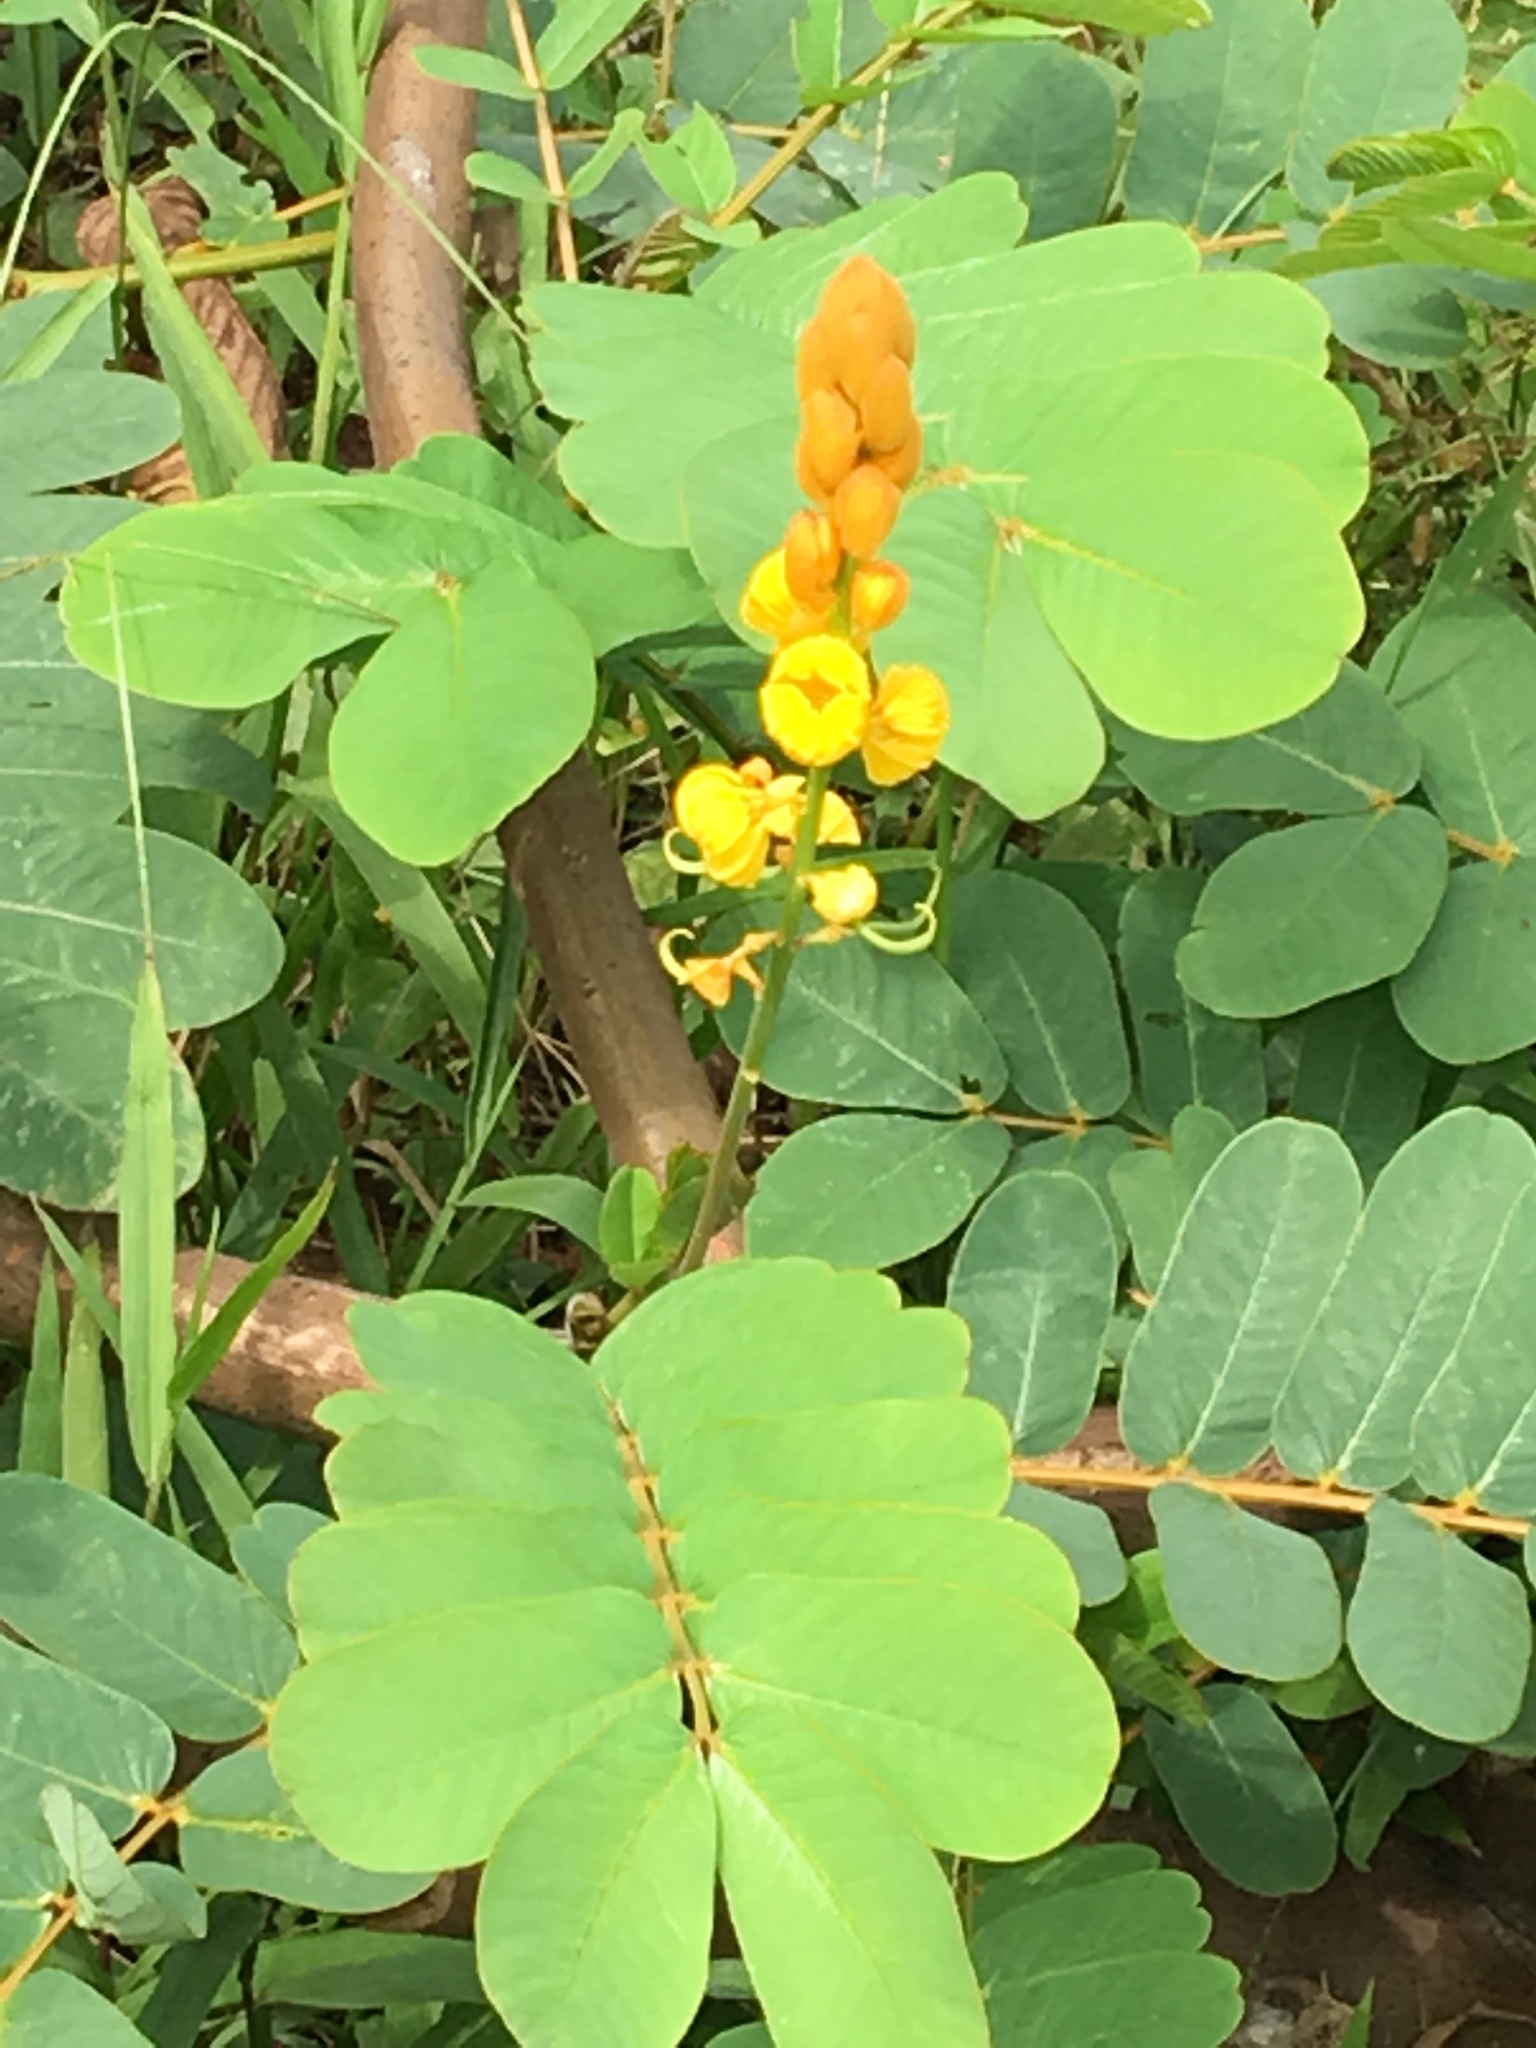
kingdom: Plantae
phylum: Tracheophyta
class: Magnoliopsida
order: Fabales
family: Fabaceae
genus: Senna
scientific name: Senna alata
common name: Emperor's candlesticks
